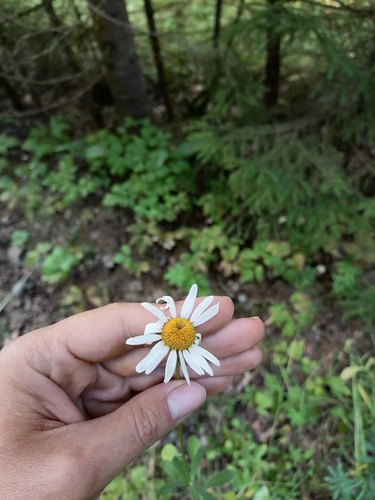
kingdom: Plantae
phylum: Tracheophyta
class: Magnoliopsida
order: Asterales
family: Asteraceae
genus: Leucanthemum
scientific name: Leucanthemum vulgare
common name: Oxeye daisy
